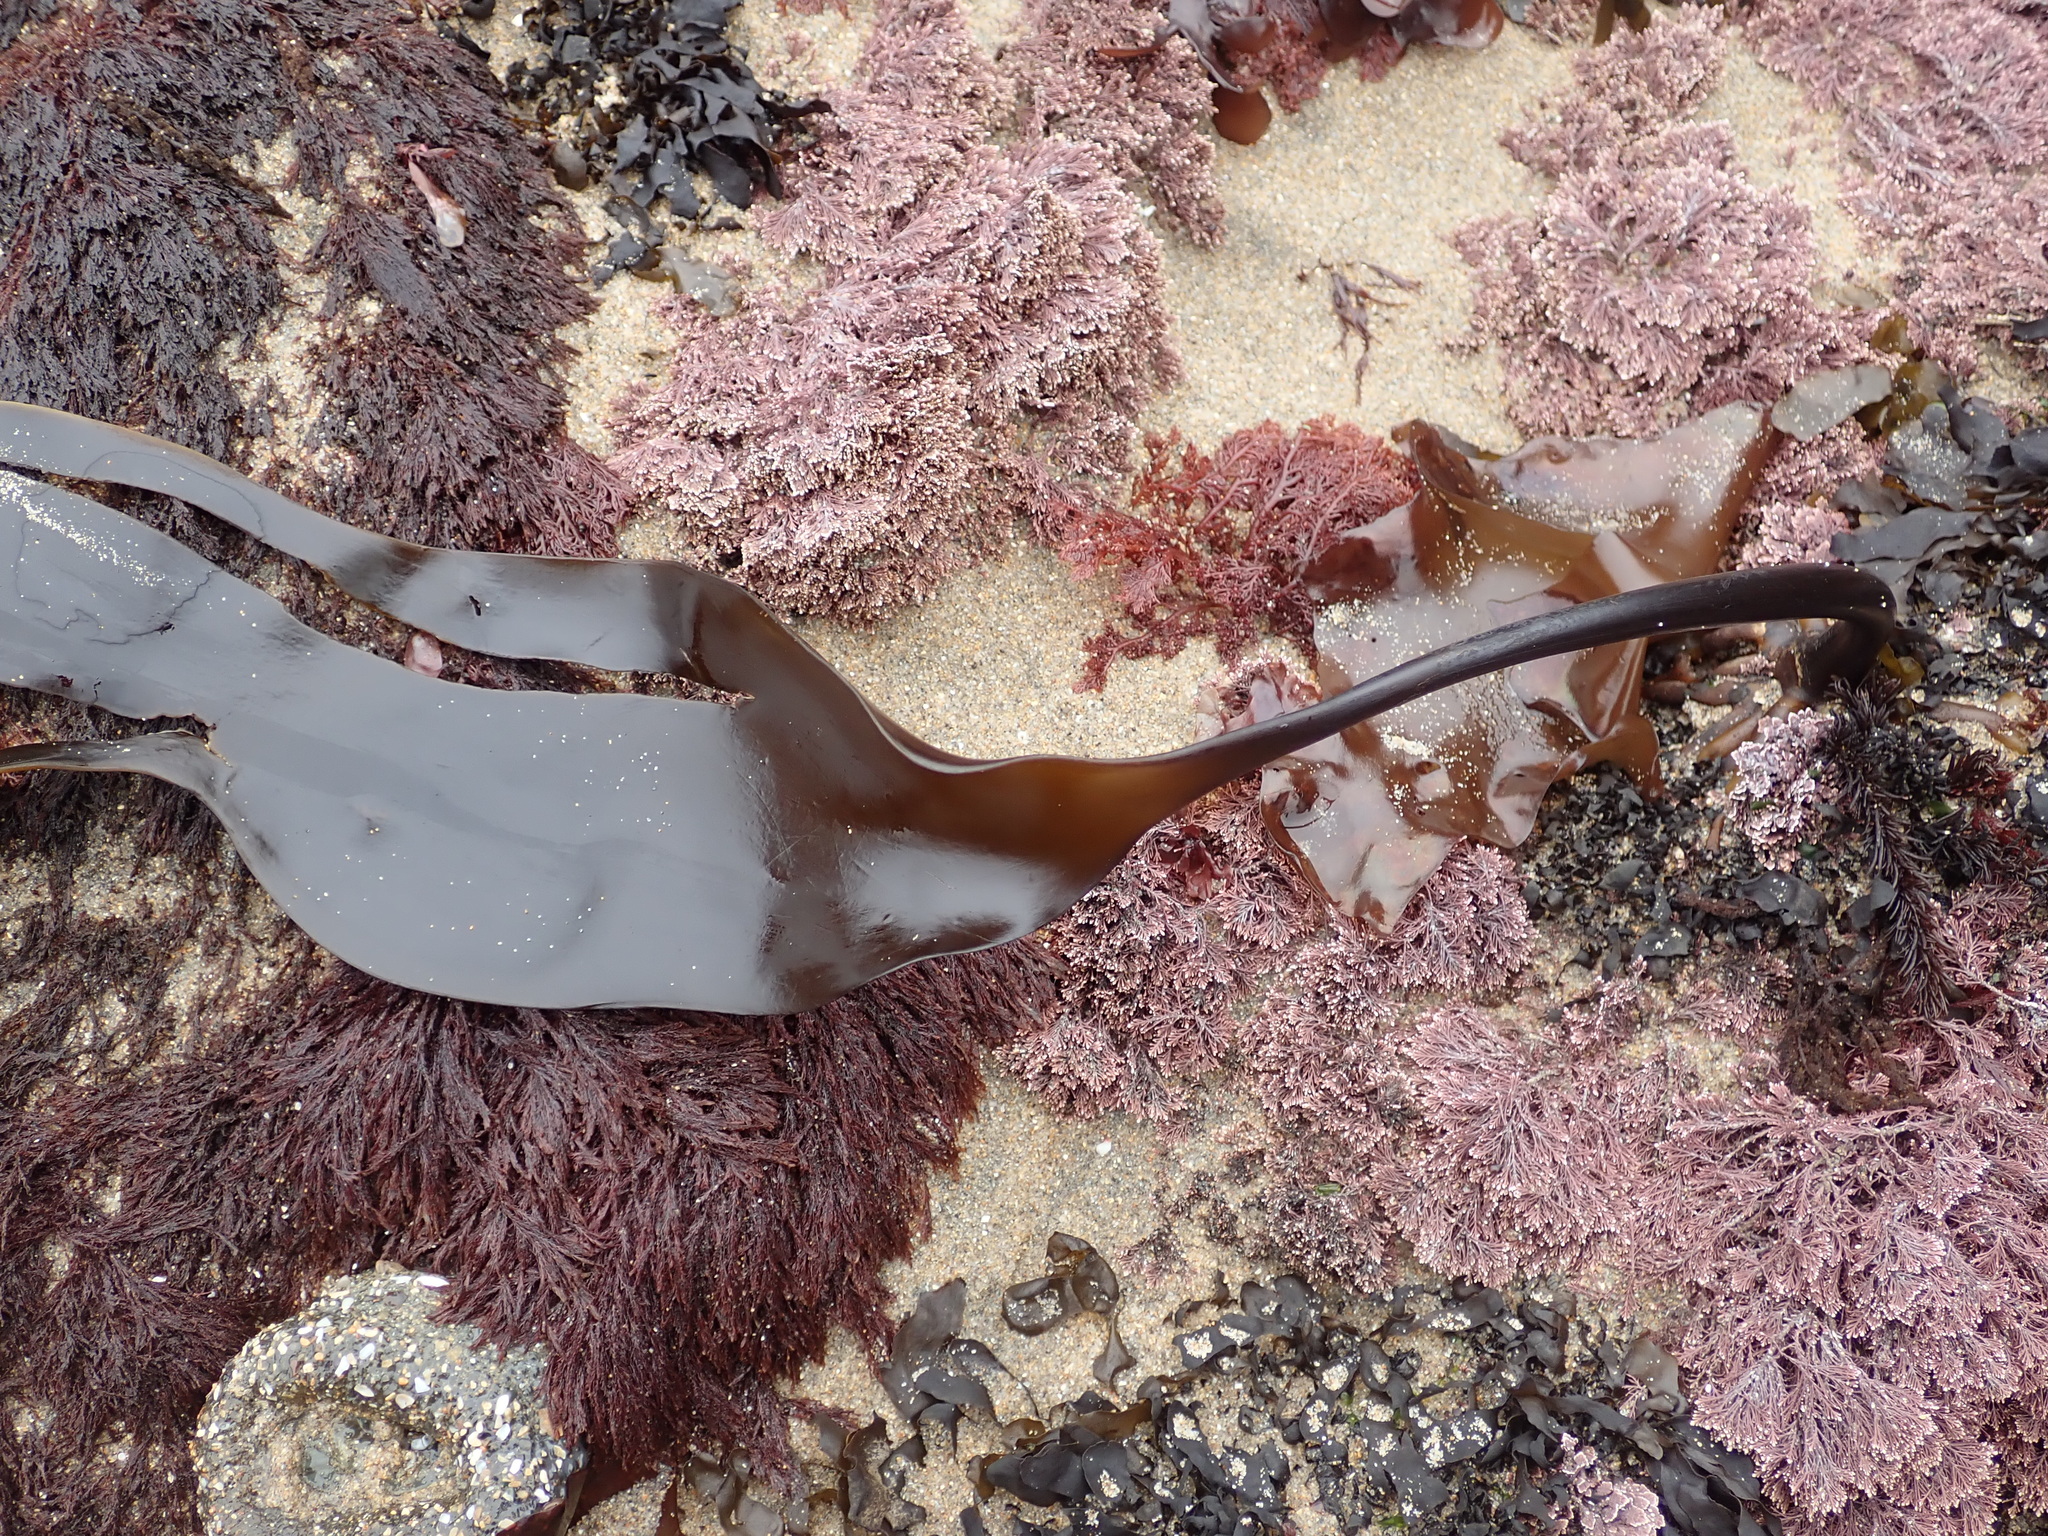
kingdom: Chromista
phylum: Ochrophyta
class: Phaeophyceae
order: Laminariales
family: Laminariaceae
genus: Laminaria
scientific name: Laminaria setchellii
